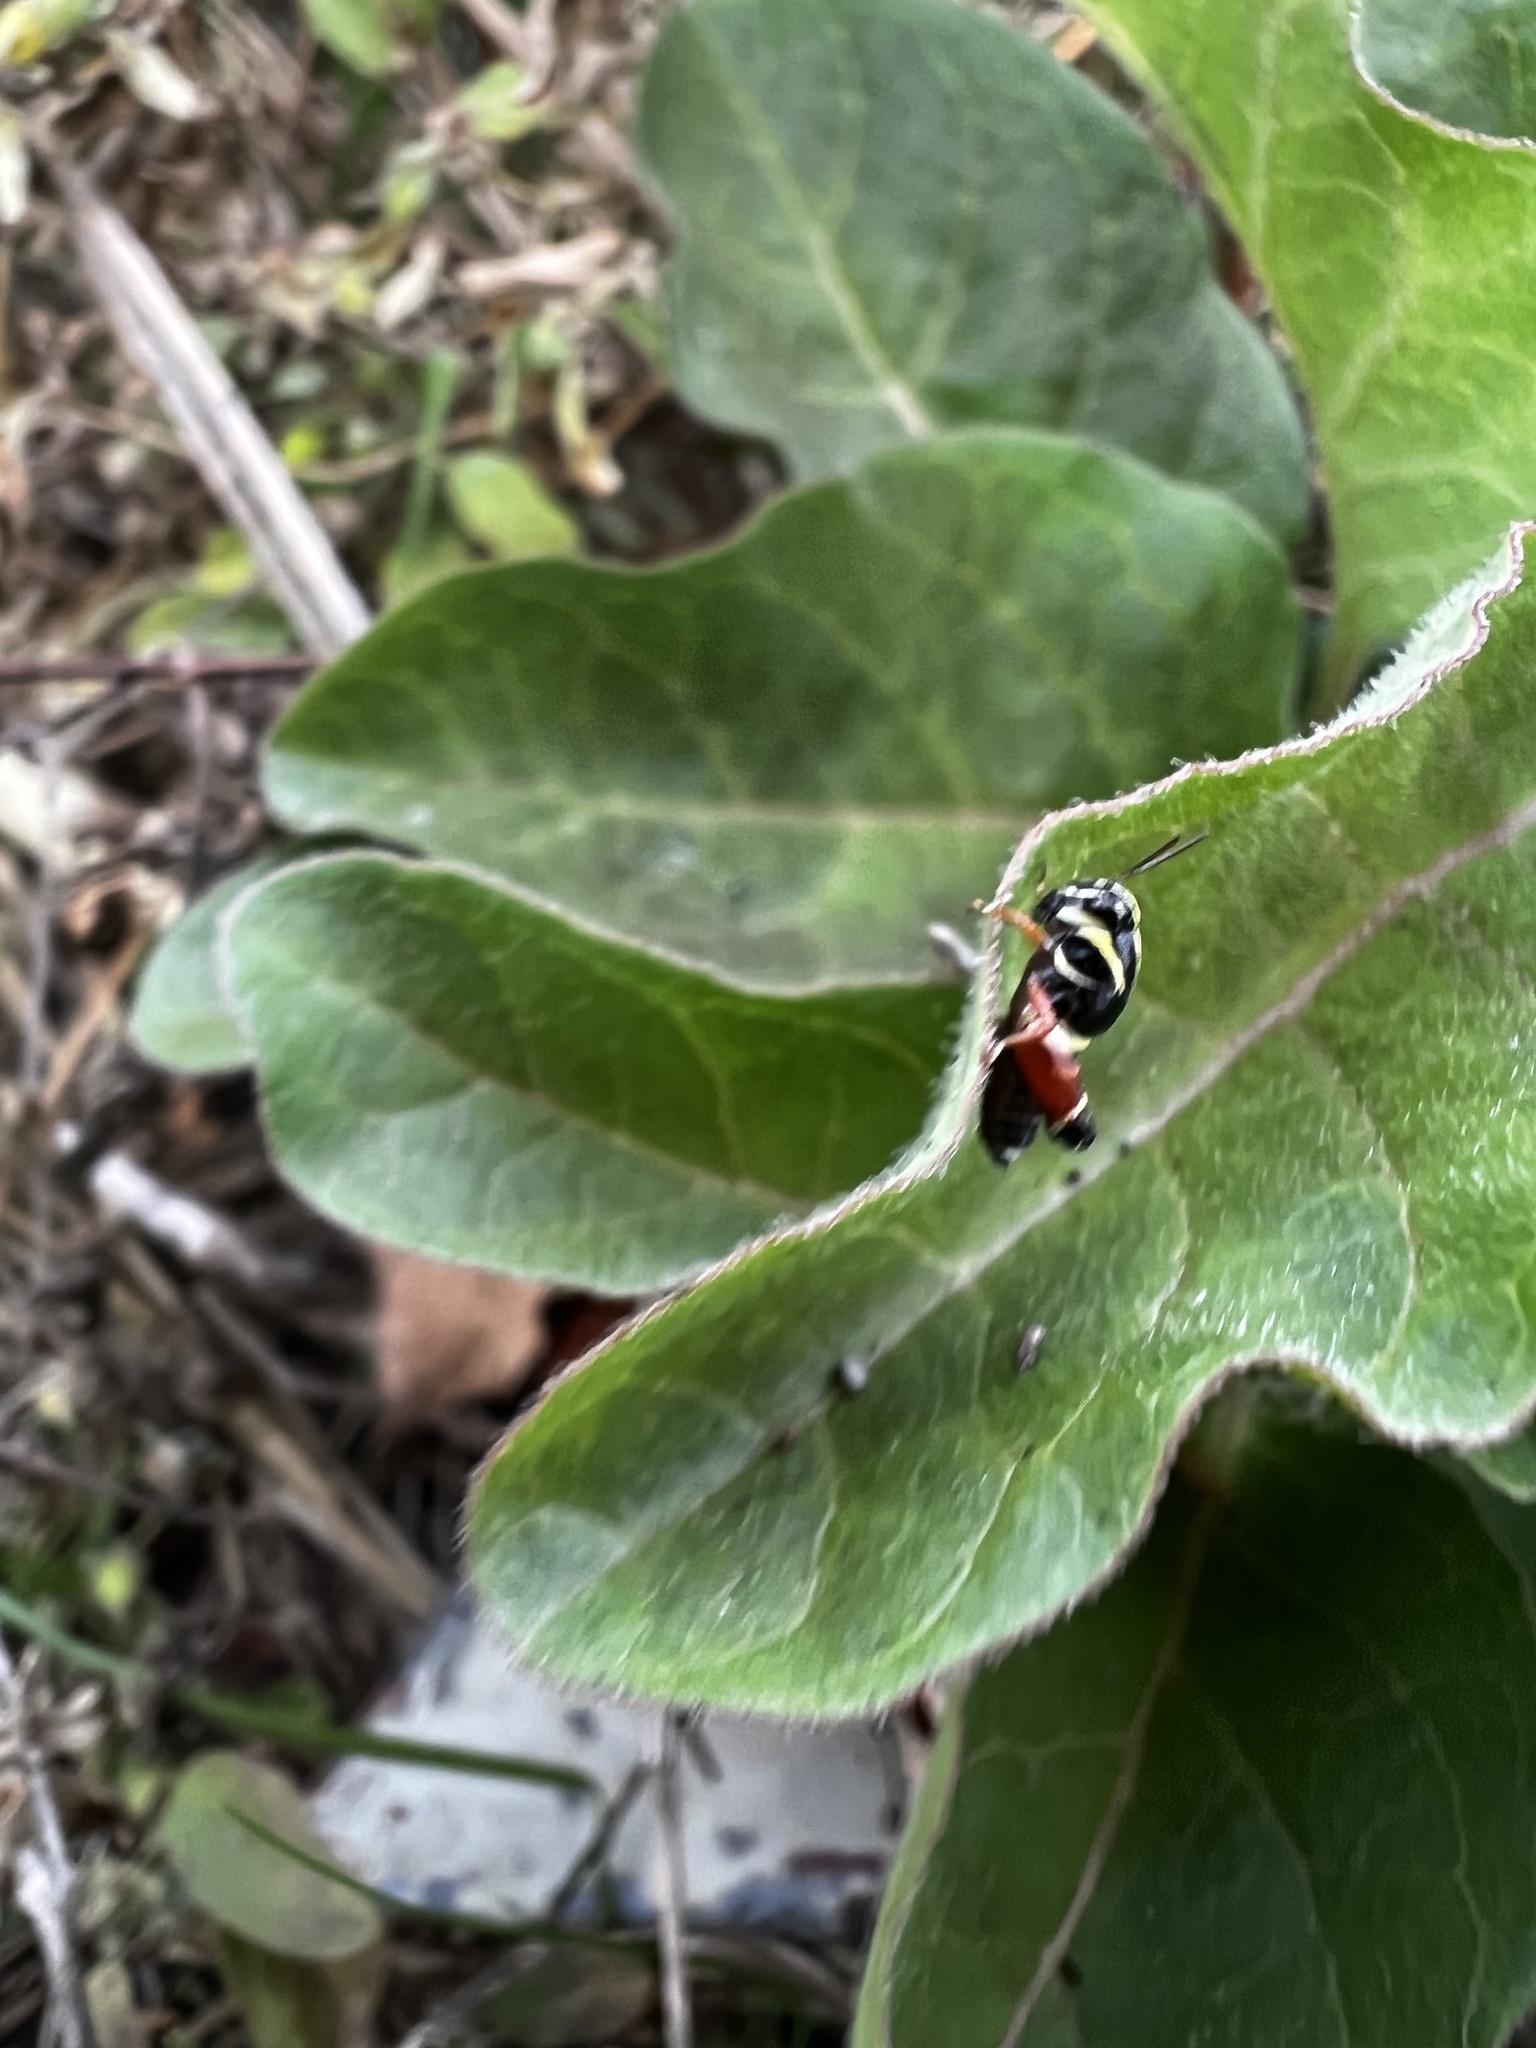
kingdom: Animalia
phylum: Arthropoda
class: Insecta
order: Orthoptera
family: Acrididae
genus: Aidemona
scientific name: Aidemona azteca
